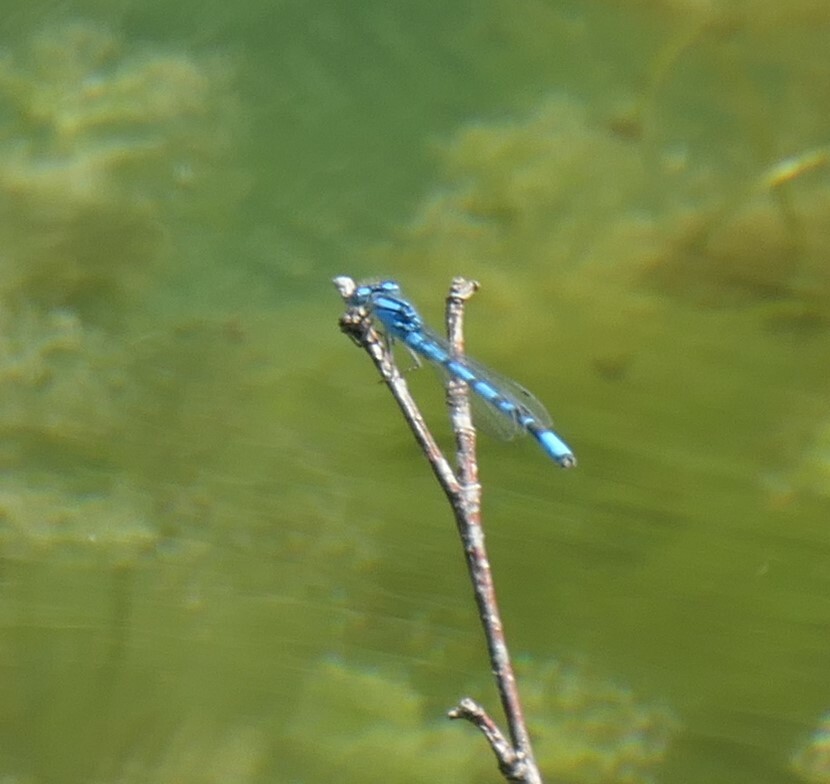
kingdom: Animalia
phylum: Arthropoda
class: Insecta
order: Odonata
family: Coenagrionidae
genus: Enallagma
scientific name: Enallagma cyathigerum
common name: Common blue damselfly
